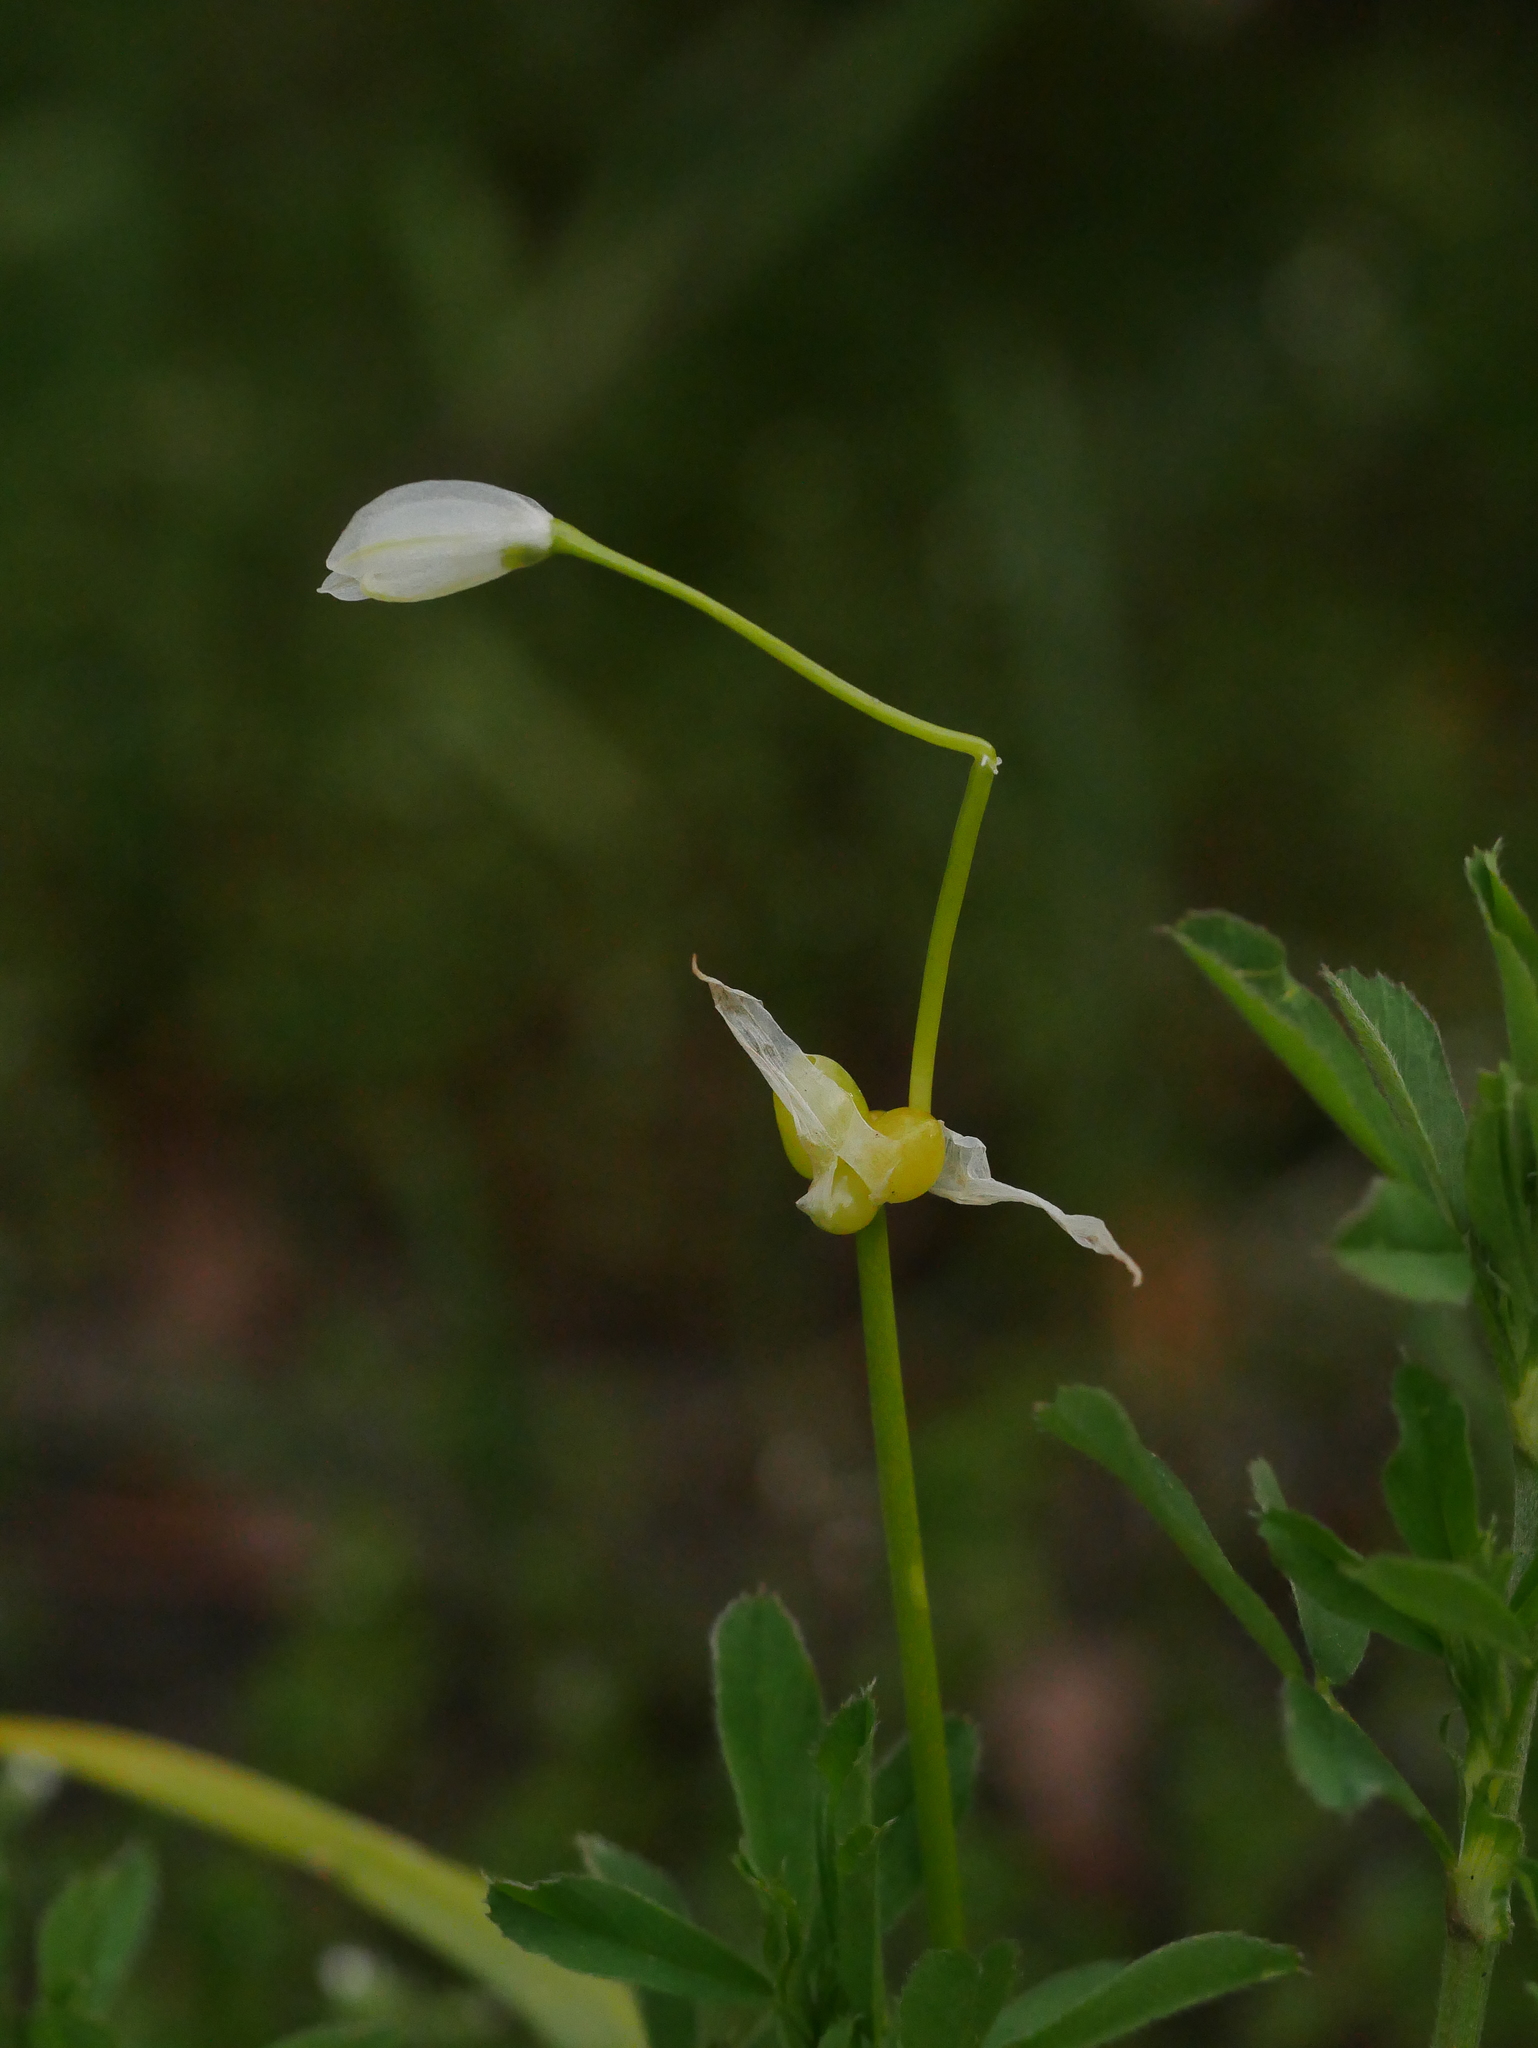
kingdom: Plantae
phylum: Tracheophyta
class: Liliopsida
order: Asparagales
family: Amaryllidaceae
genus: Allium
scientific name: Allium paradoxum
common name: Few-flowered garlic
